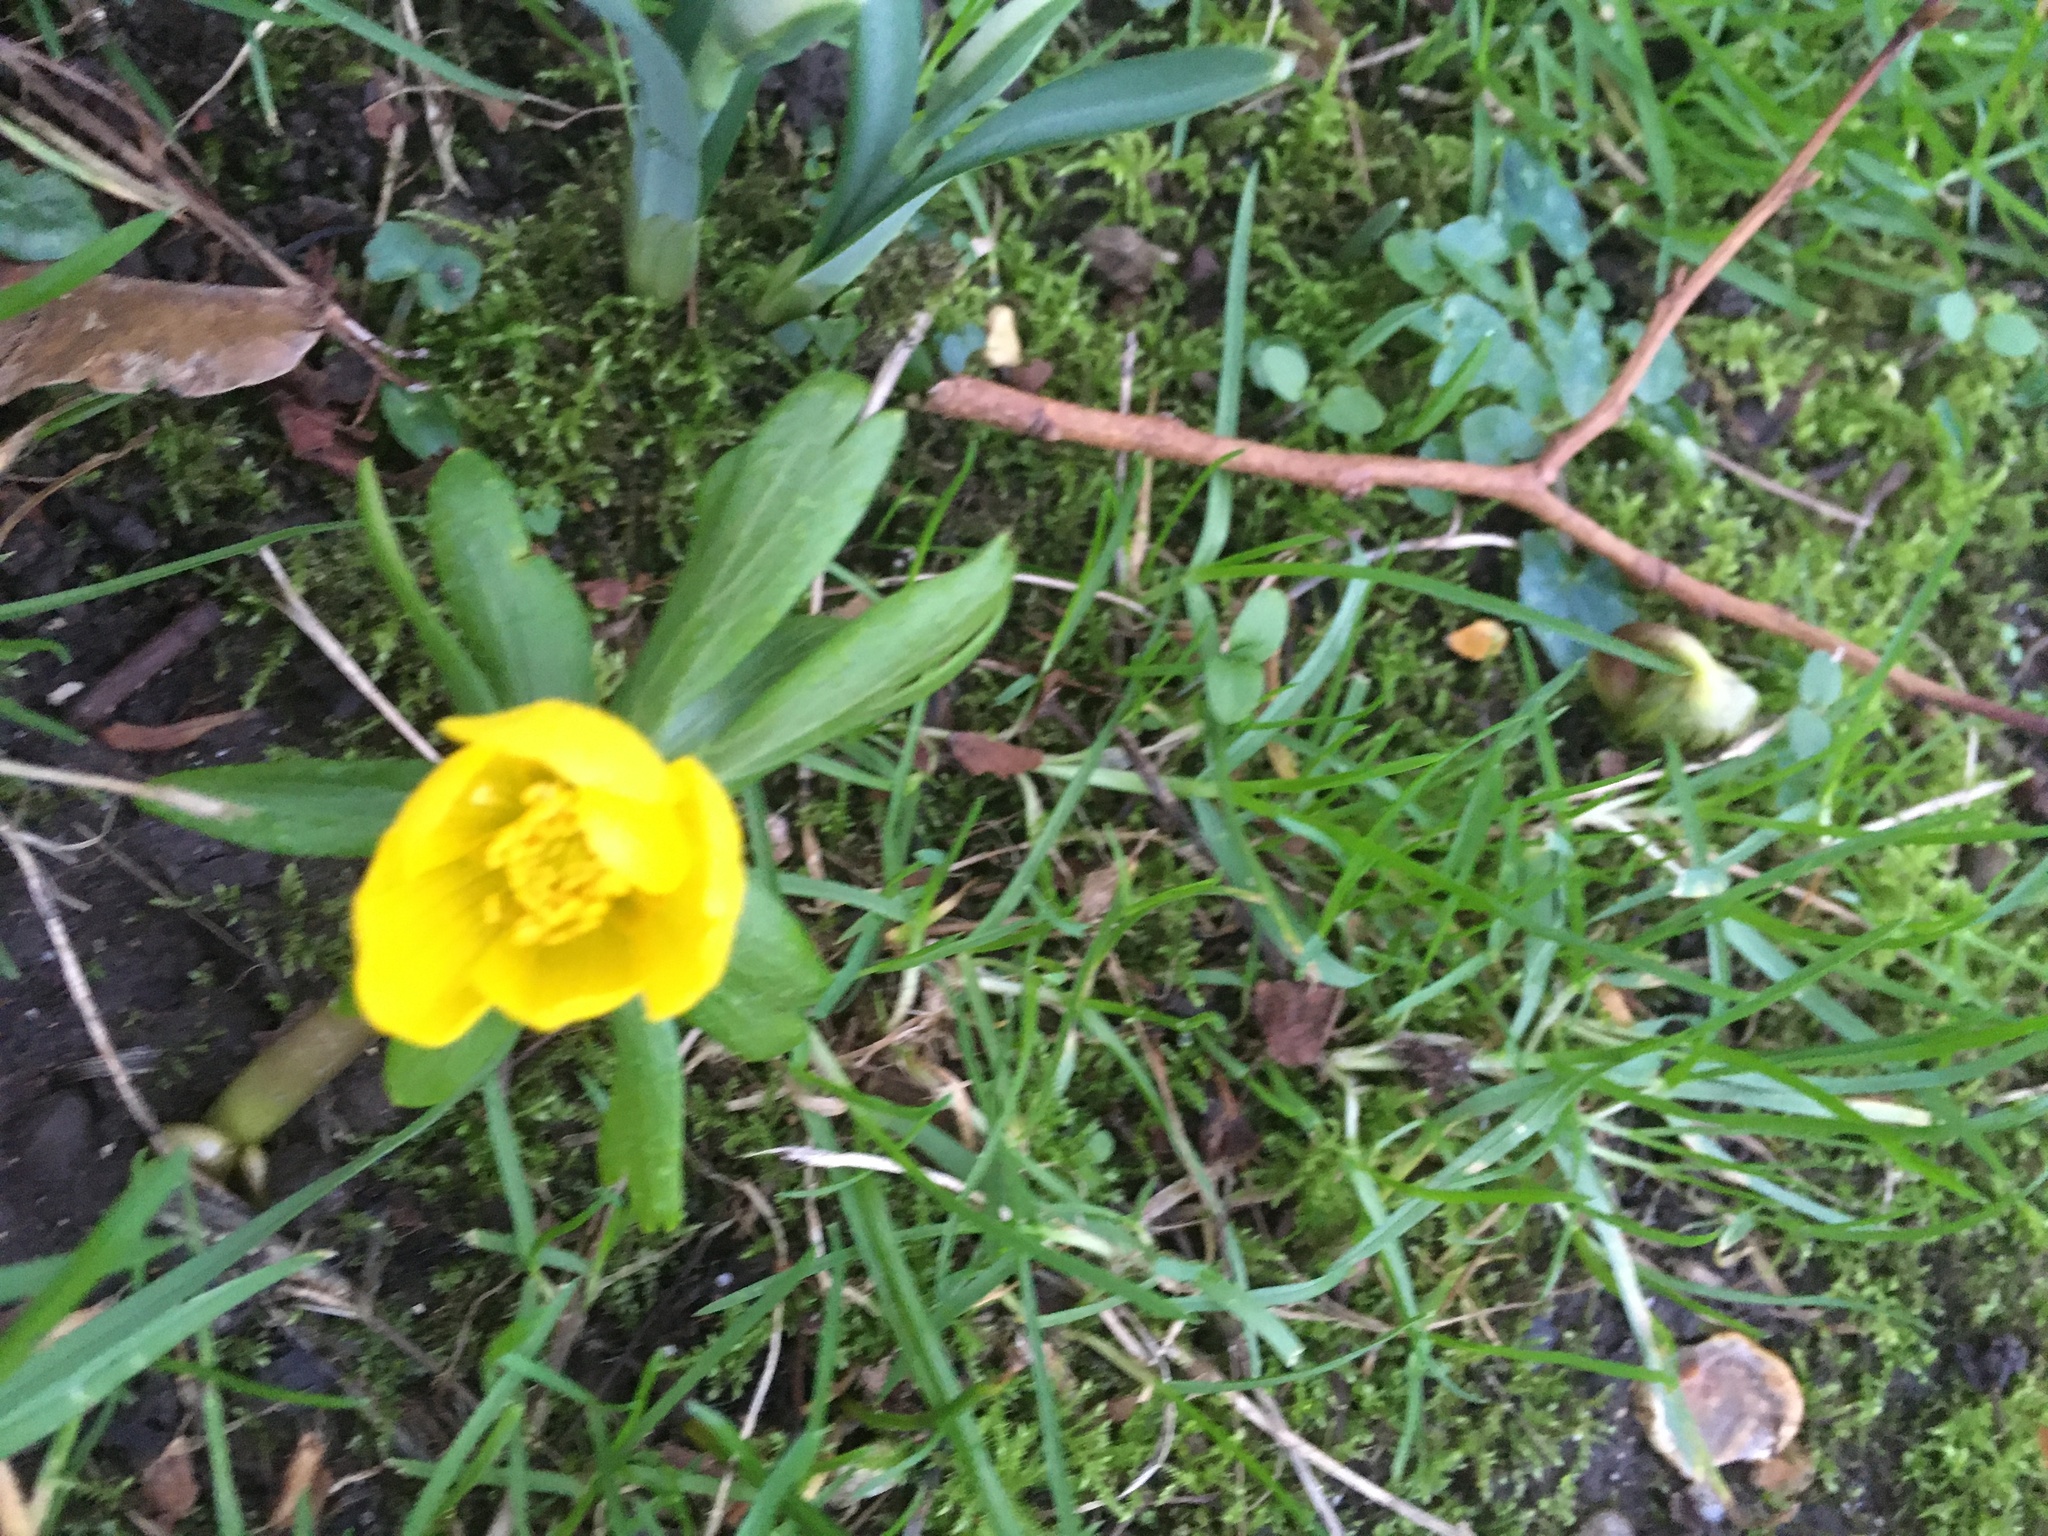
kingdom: Plantae
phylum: Tracheophyta
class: Magnoliopsida
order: Ranunculales
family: Ranunculaceae
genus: Eranthis
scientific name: Eranthis hyemalis
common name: Winter aconite
